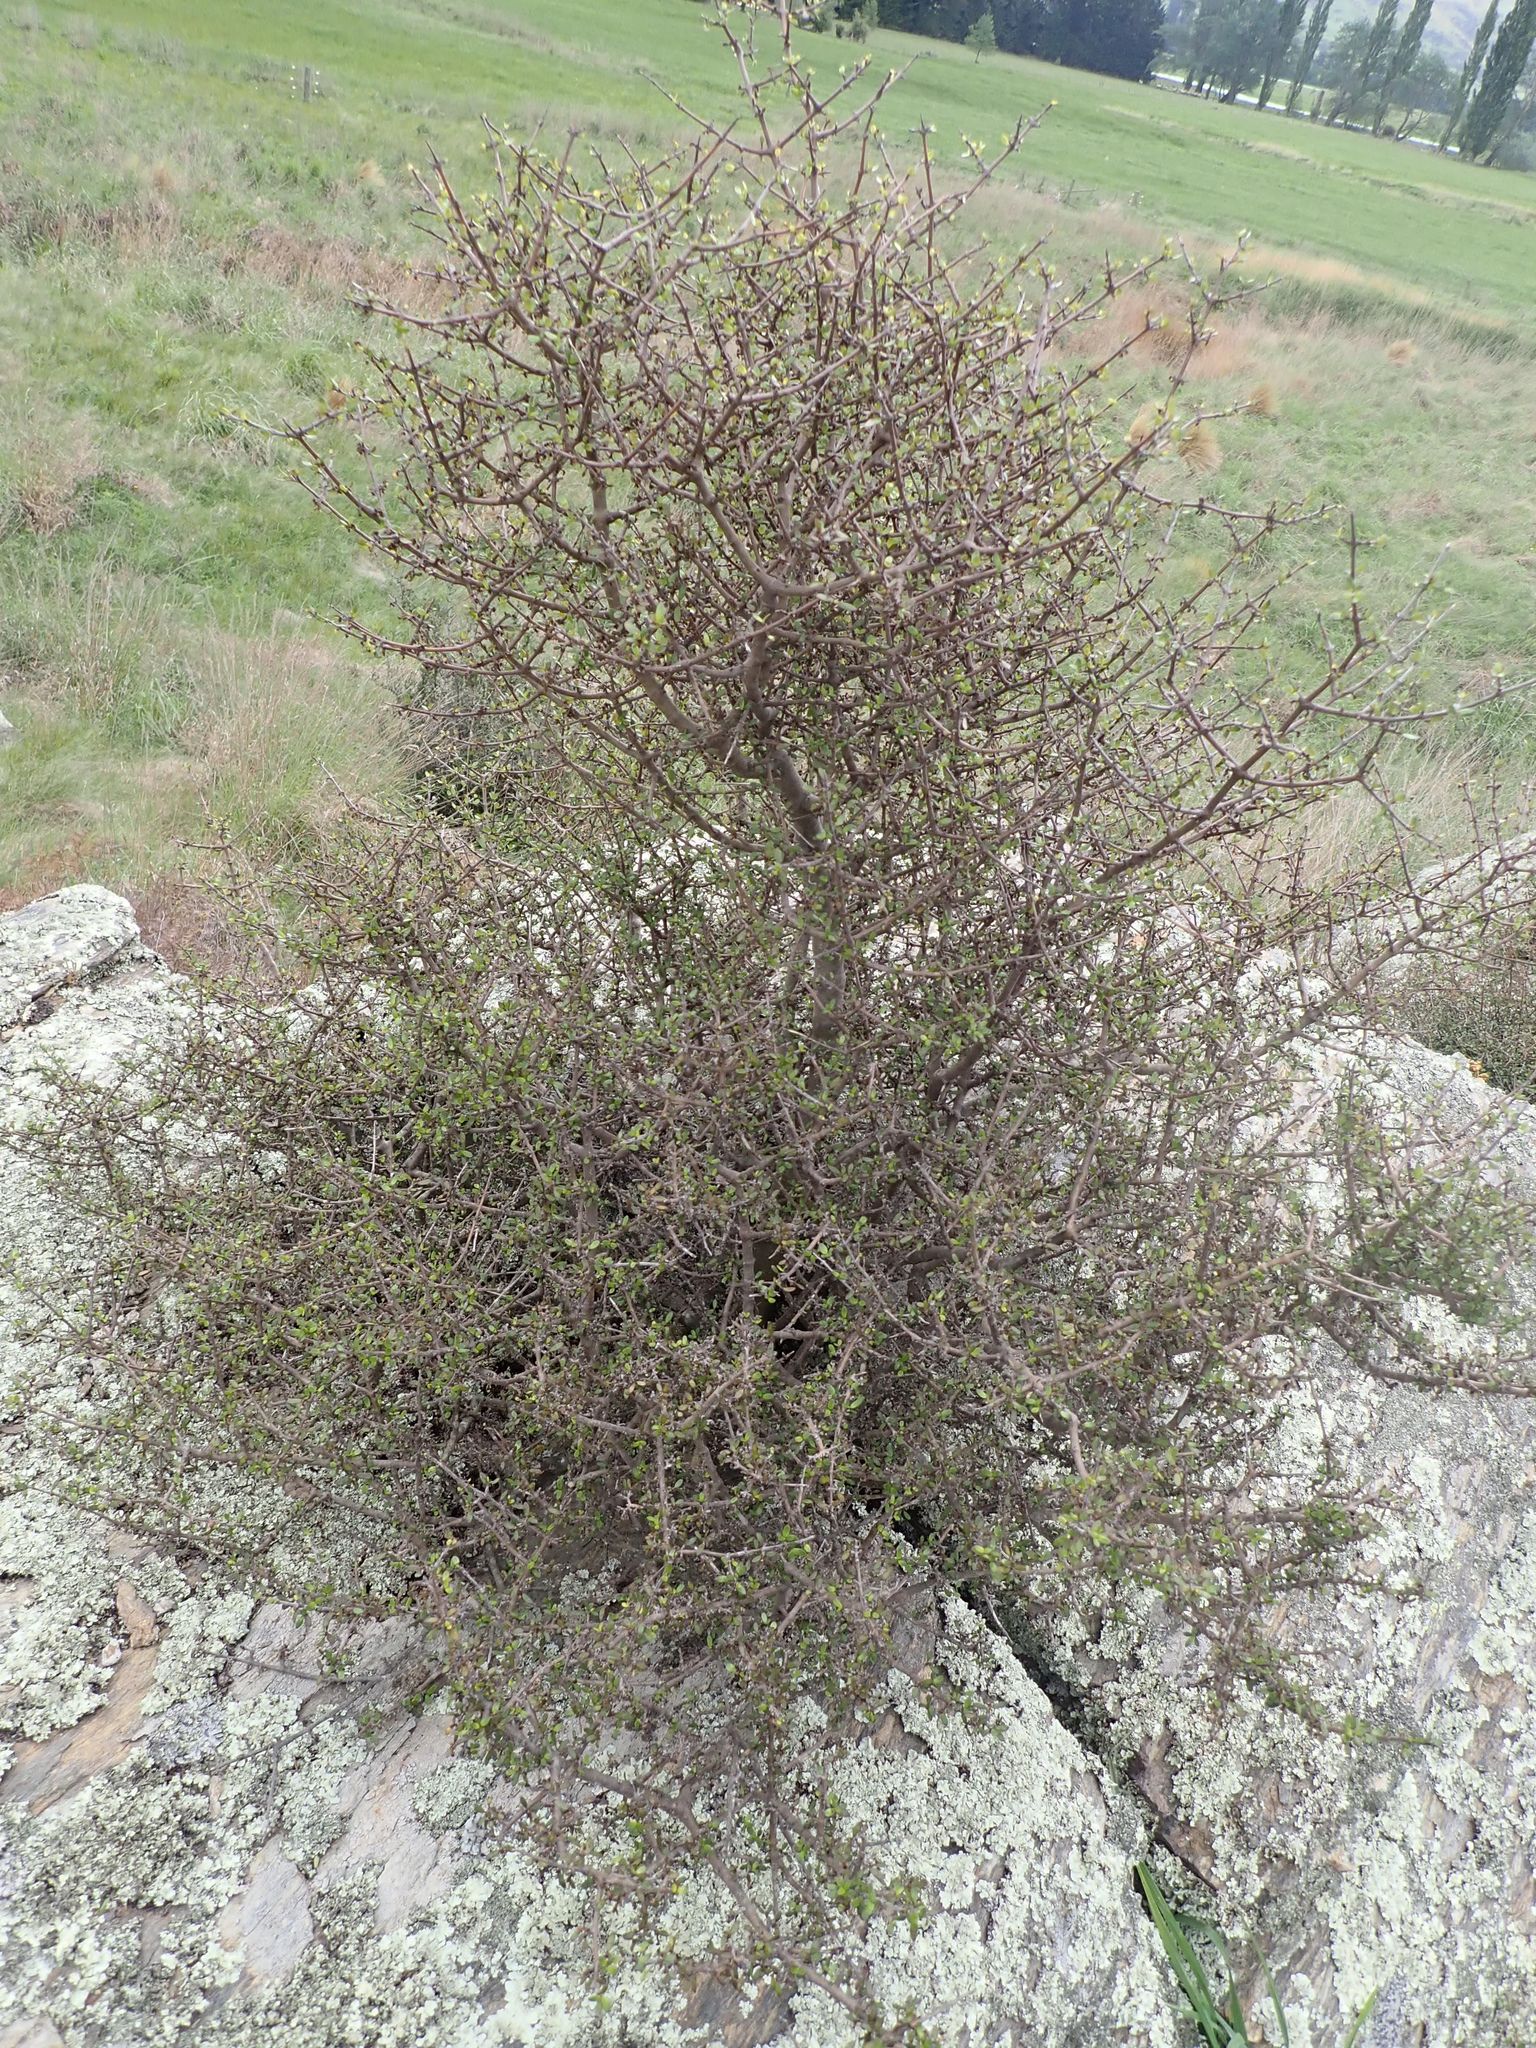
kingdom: Plantae
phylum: Tracheophyta
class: Magnoliopsida
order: Gentianales
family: Rubiaceae
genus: Coprosma
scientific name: Coprosma propinqua
